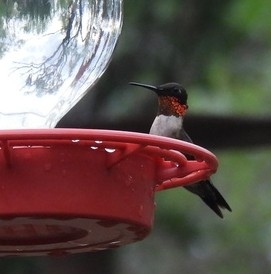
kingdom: Animalia
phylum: Chordata
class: Aves
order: Apodiformes
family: Trochilidae
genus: Archilochus
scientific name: Archilochus colubris
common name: Ruby-throated hummingbird
